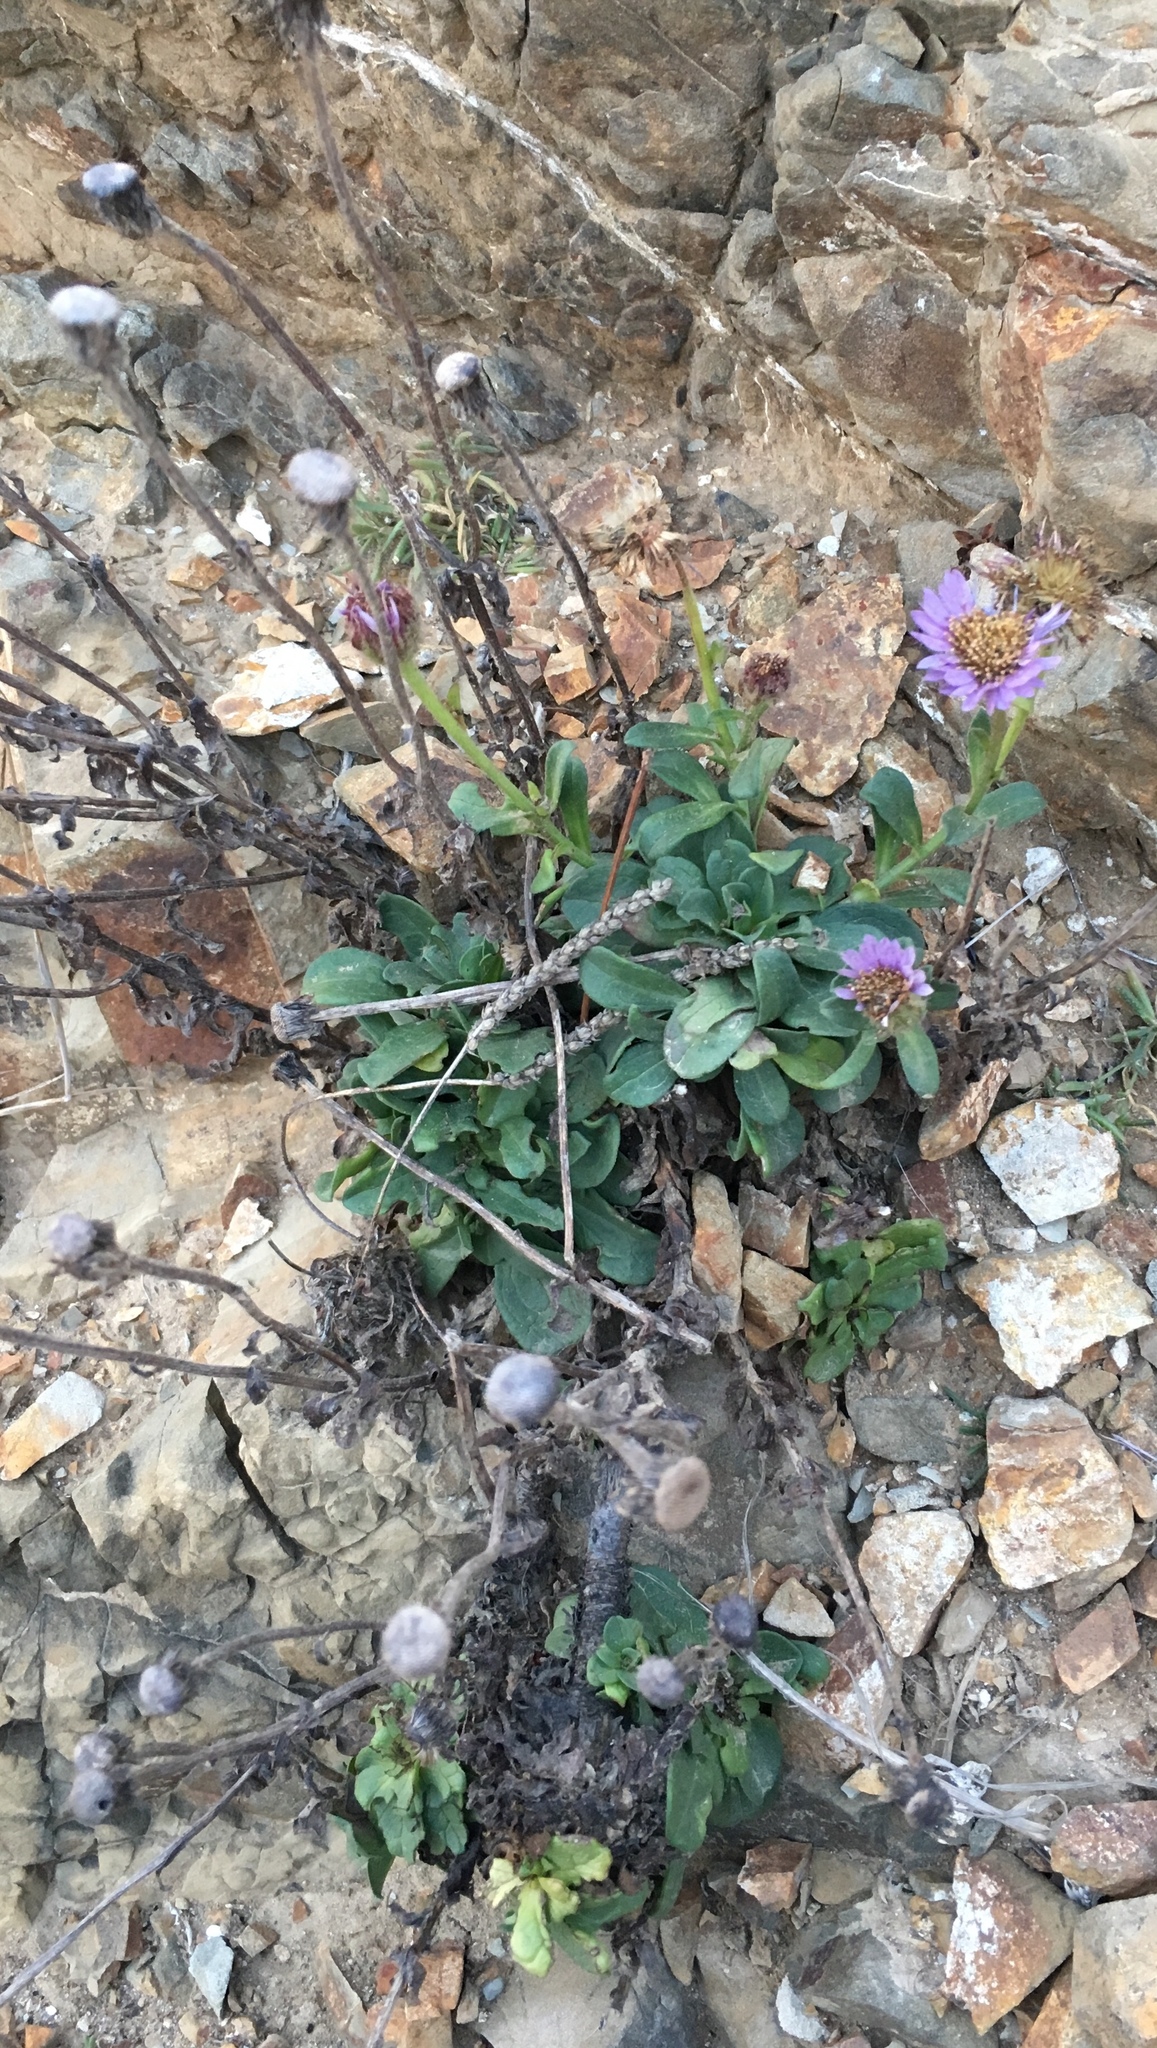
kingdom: Plantae
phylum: Tracheophyta
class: Magnoliopsida
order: Asterales
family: Asteraceae
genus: Erigeron
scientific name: Erigeron glaucus
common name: Seaside daisy
